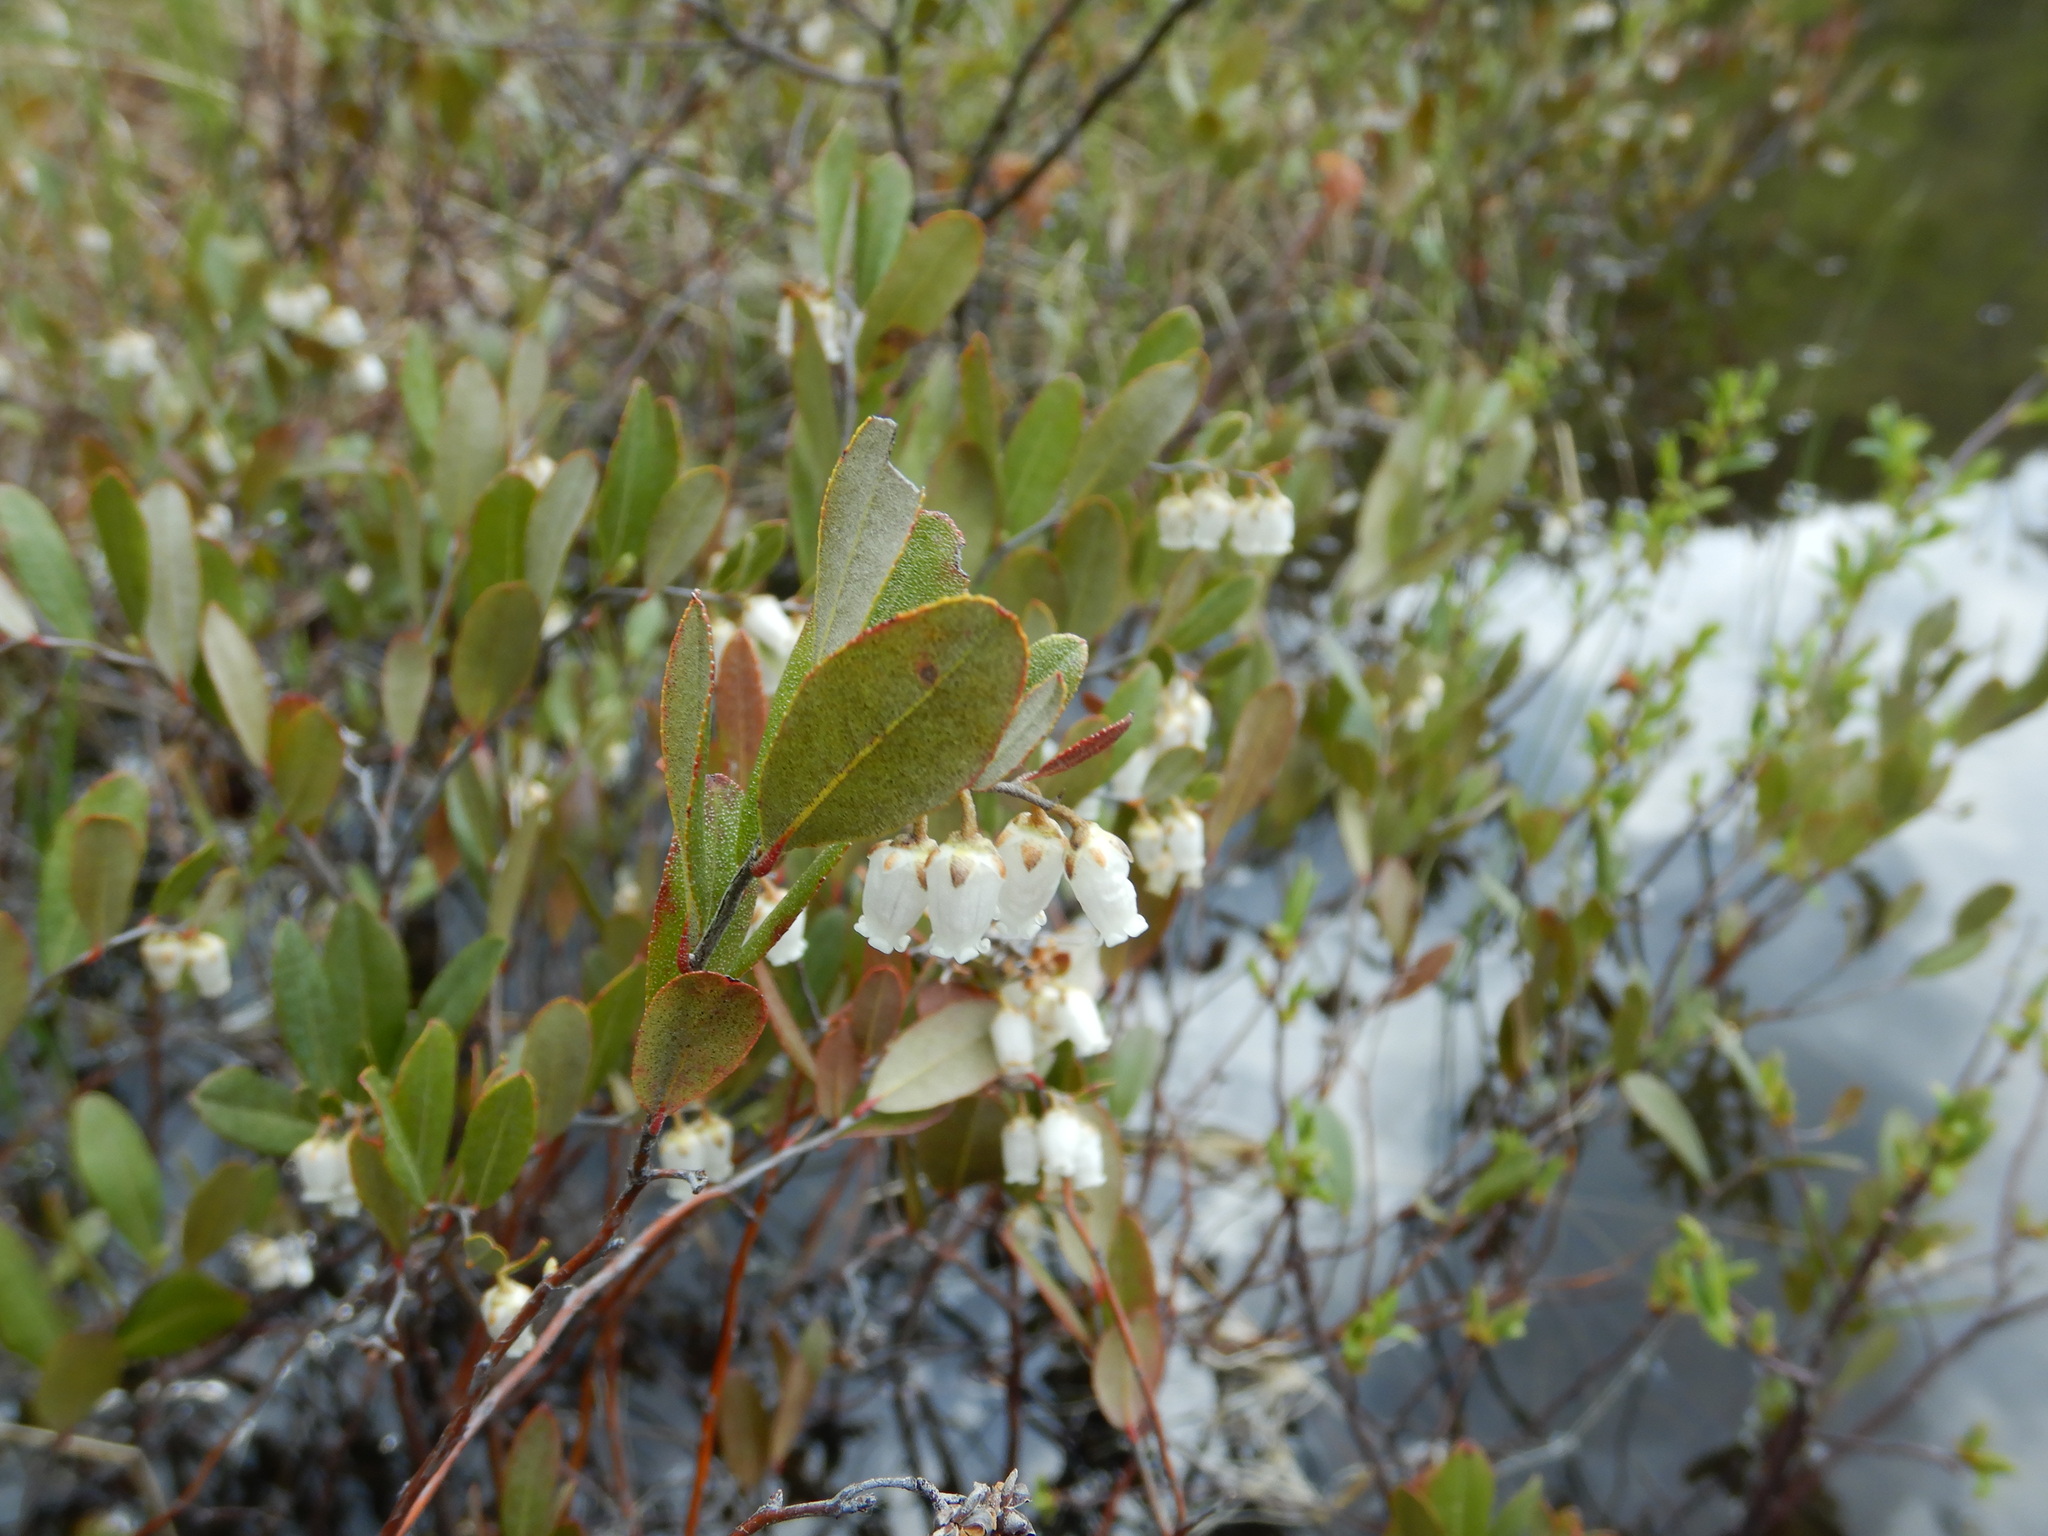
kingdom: Plantae
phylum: Tracheophyta
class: Magnoliopsida
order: Ericales
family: Ericaceae
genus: Chamaedaphne
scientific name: Chamaedaphne calyculata
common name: Leatherleaf
